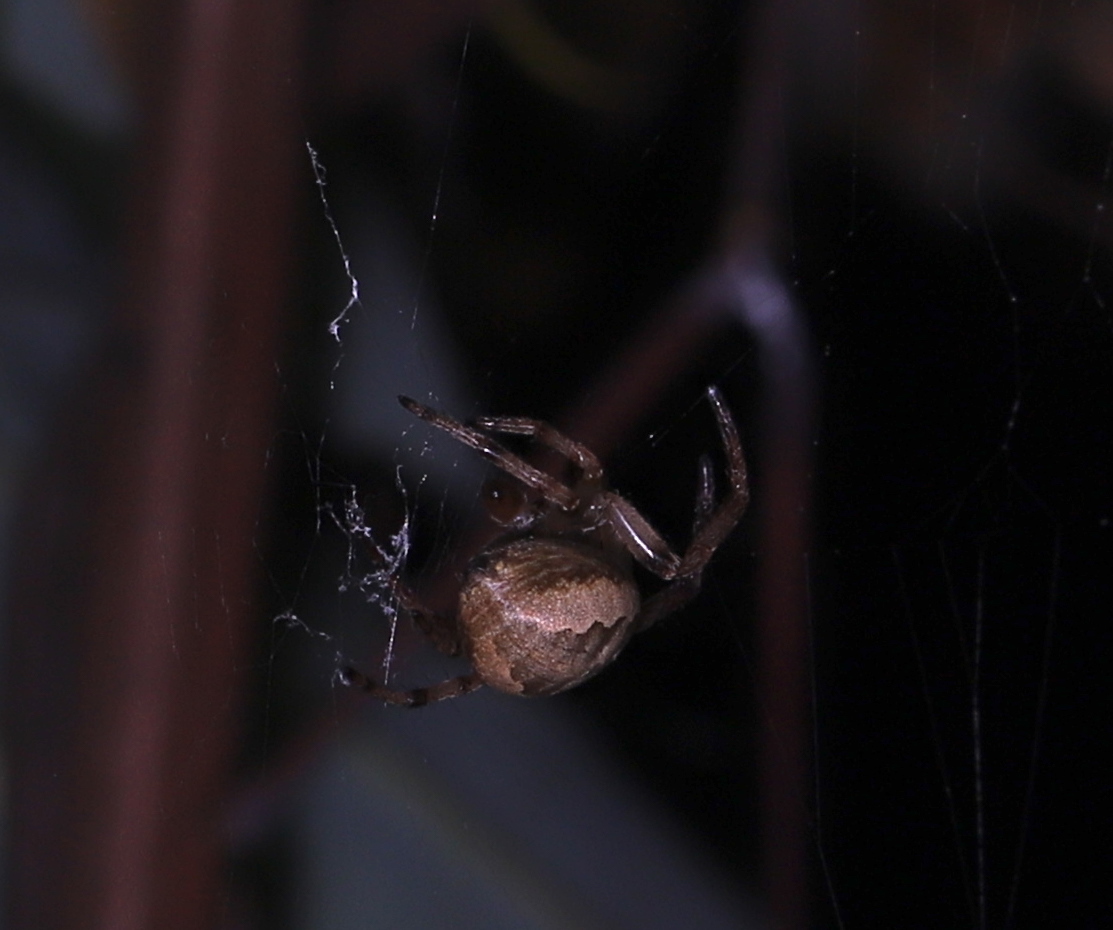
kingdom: Animalia
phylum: Arthropoda
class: Arachnida
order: Araneae
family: Araneidae
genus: Larinioides
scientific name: Larinioides cornutus
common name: Furrow orbweaver
